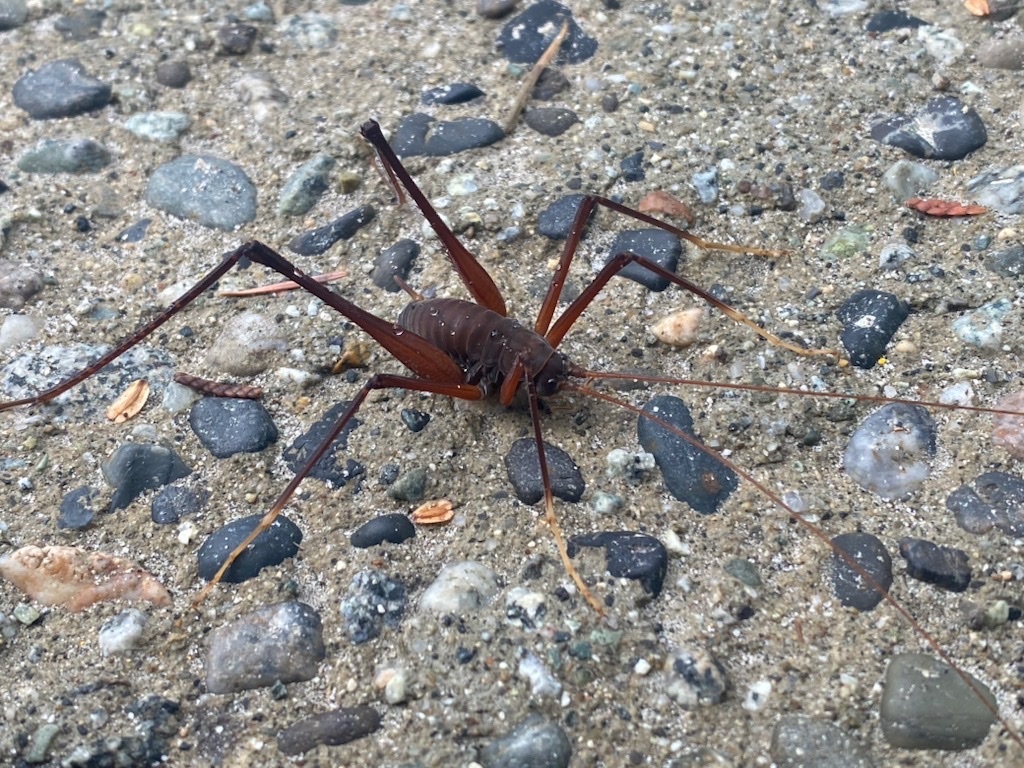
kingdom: Animalia
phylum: Arthropoda
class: Insecta
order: Orthoptera
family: Rhaphidophoridae
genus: Tropidischia
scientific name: Tropidischia xanthostoma
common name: Square-legged camel cricket
